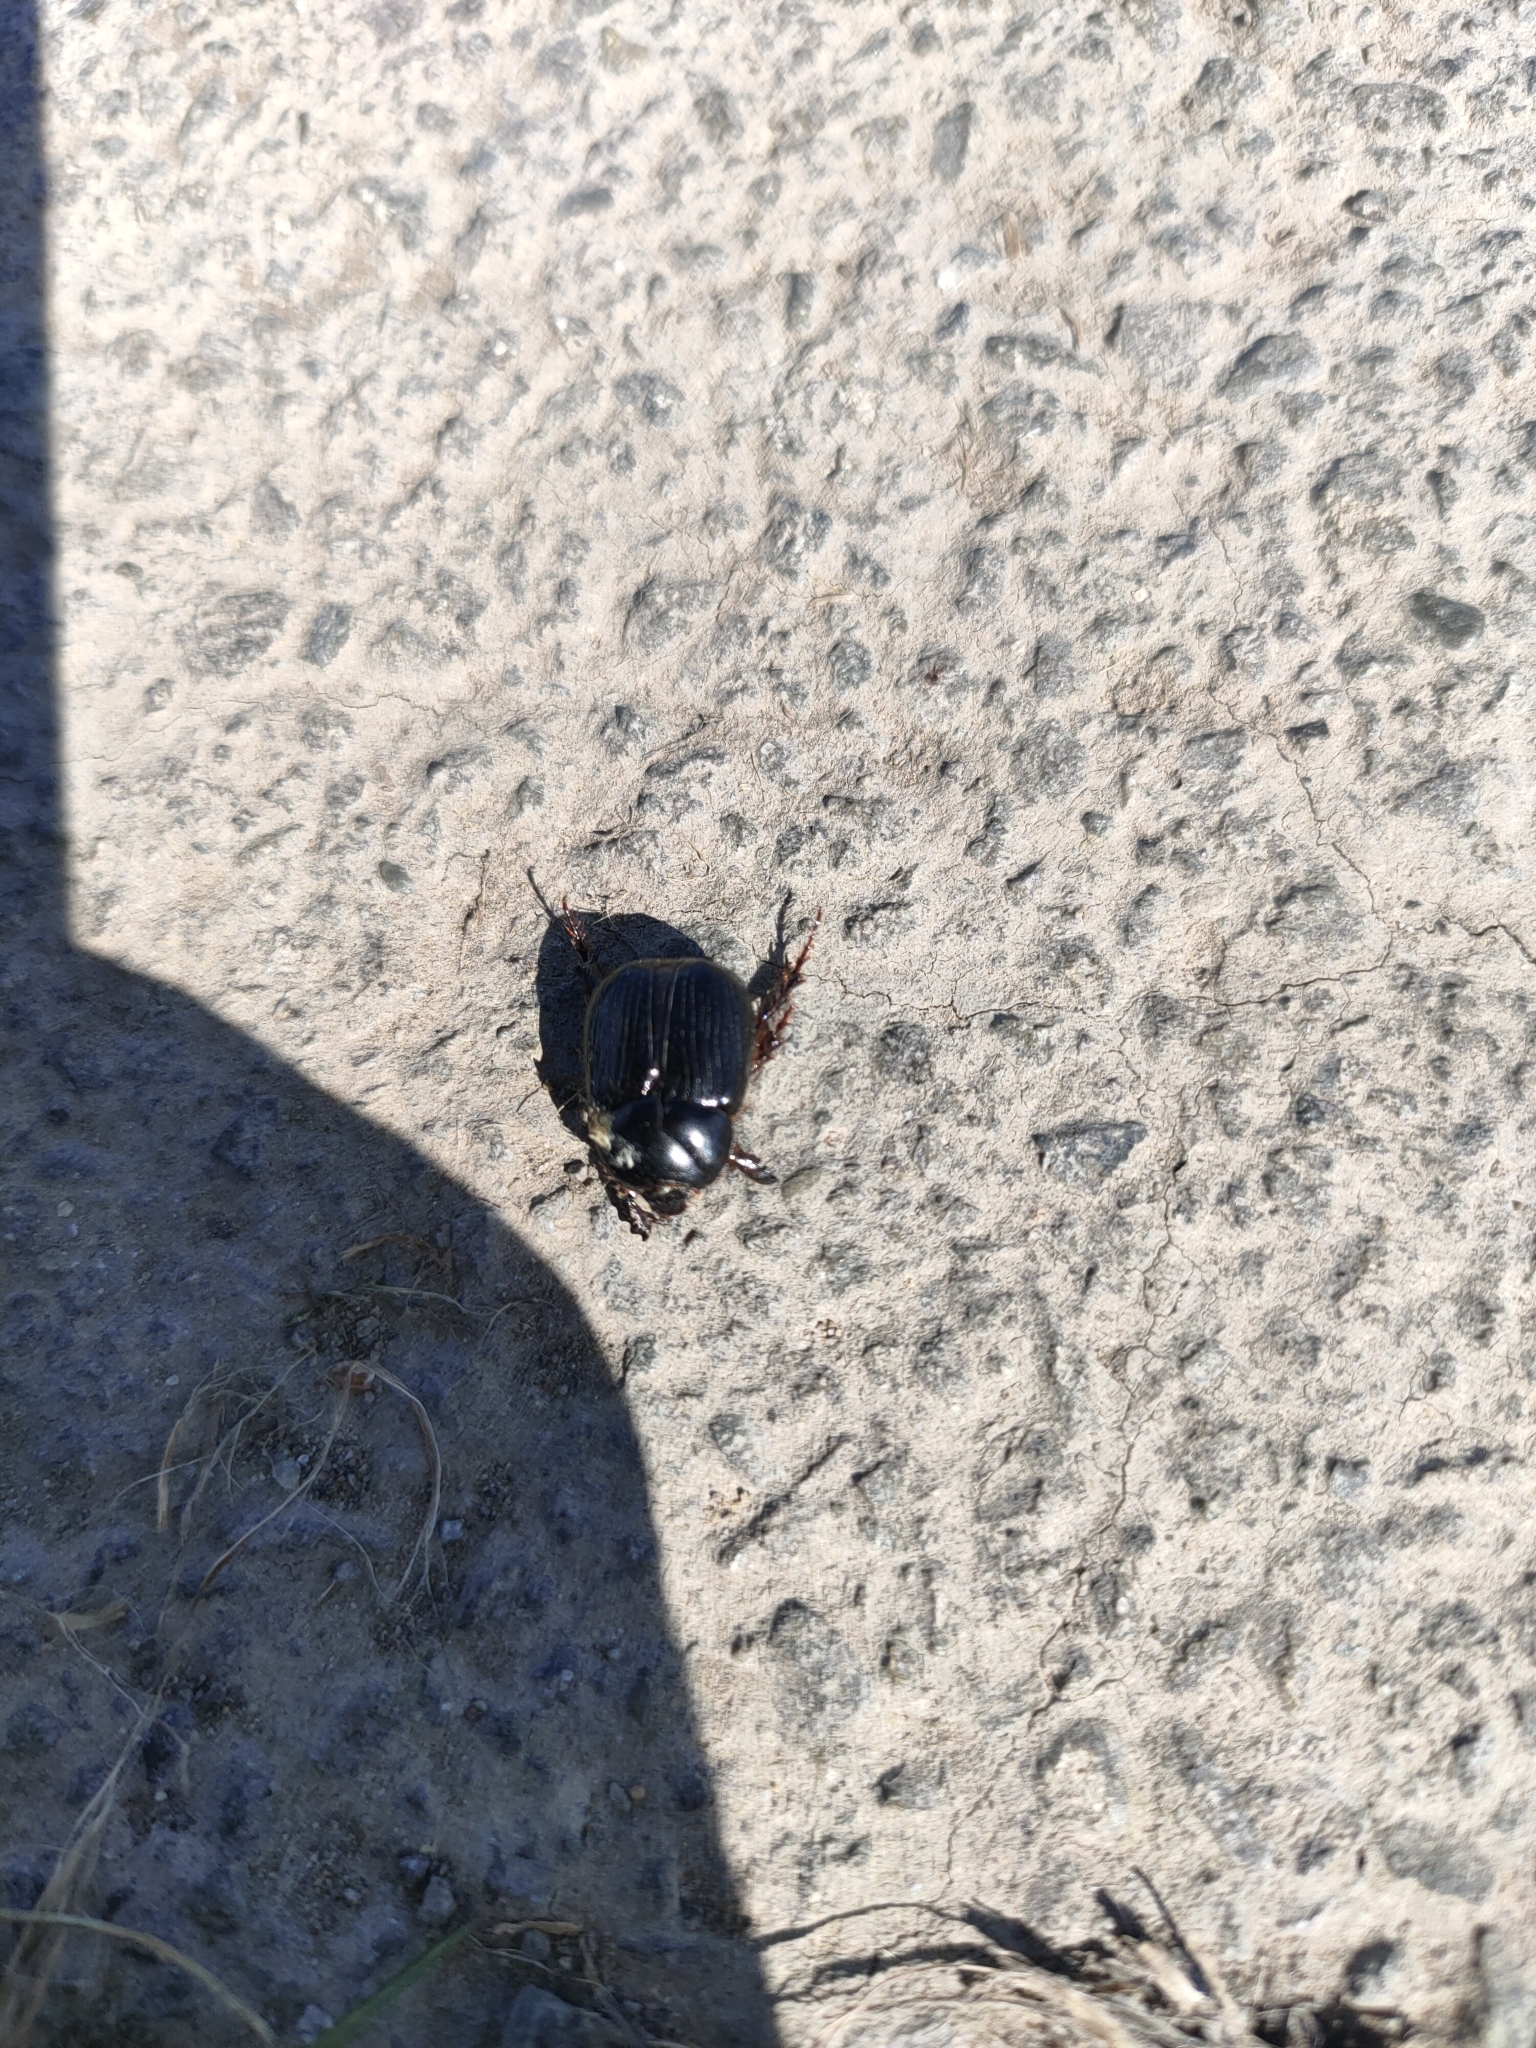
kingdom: Animalia
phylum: Arthropoda
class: Insecta
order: Coleoptera
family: Scarabaeidae
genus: Adoryphorus
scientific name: Adoryphorus couloni
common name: Redheaded pasture cockchafer
